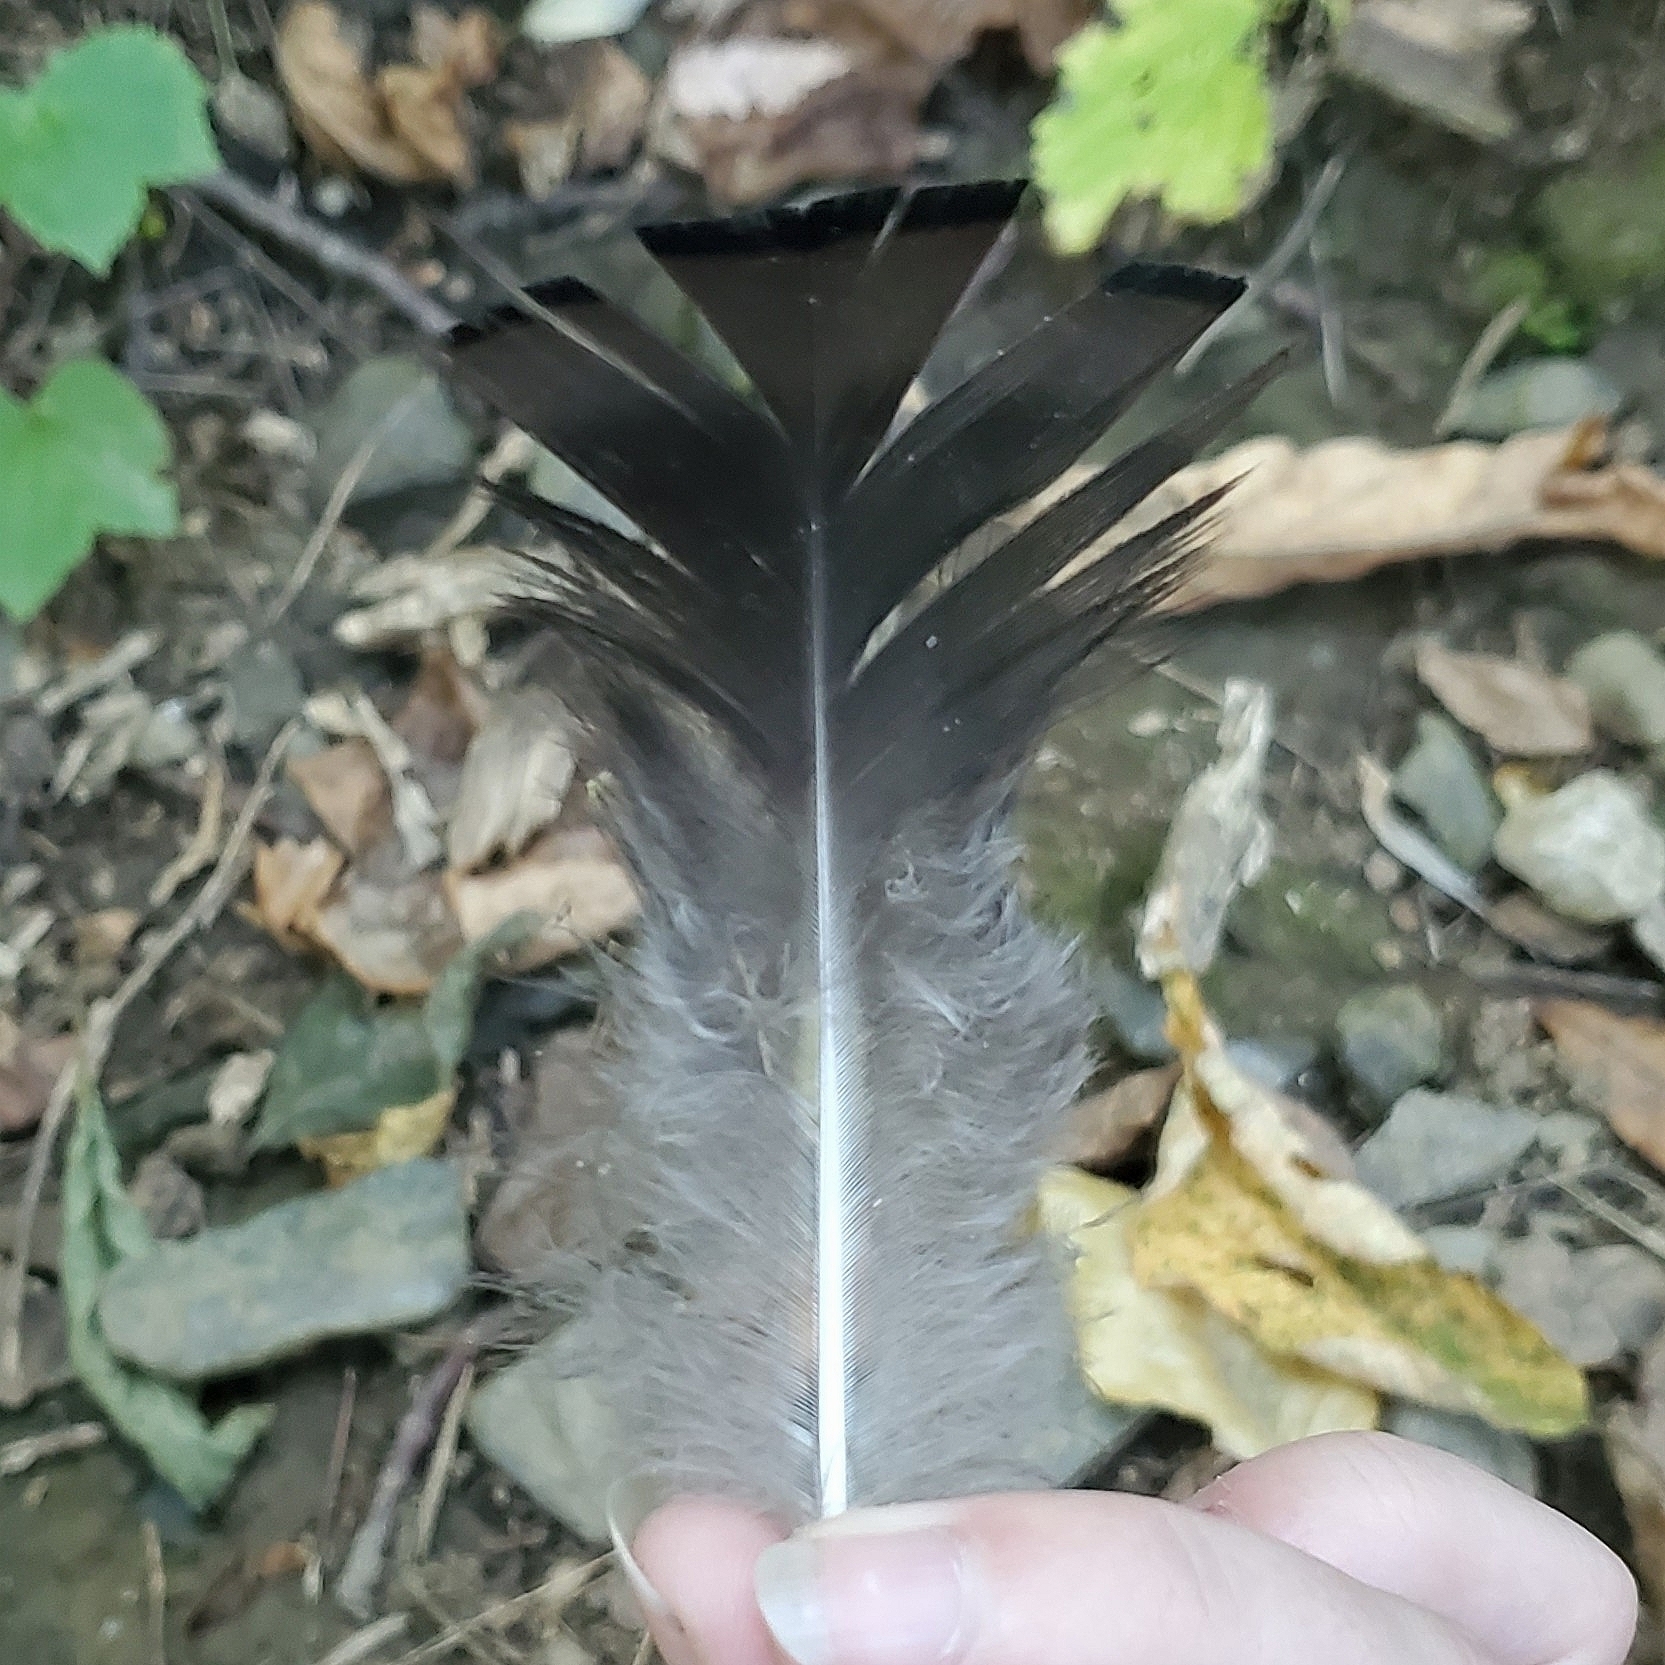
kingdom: Animalia
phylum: Chordata
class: Aves
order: Galliformes
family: Phasianidae
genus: Meleagris
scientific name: Meleagris gallopavo
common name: Wild turkey
